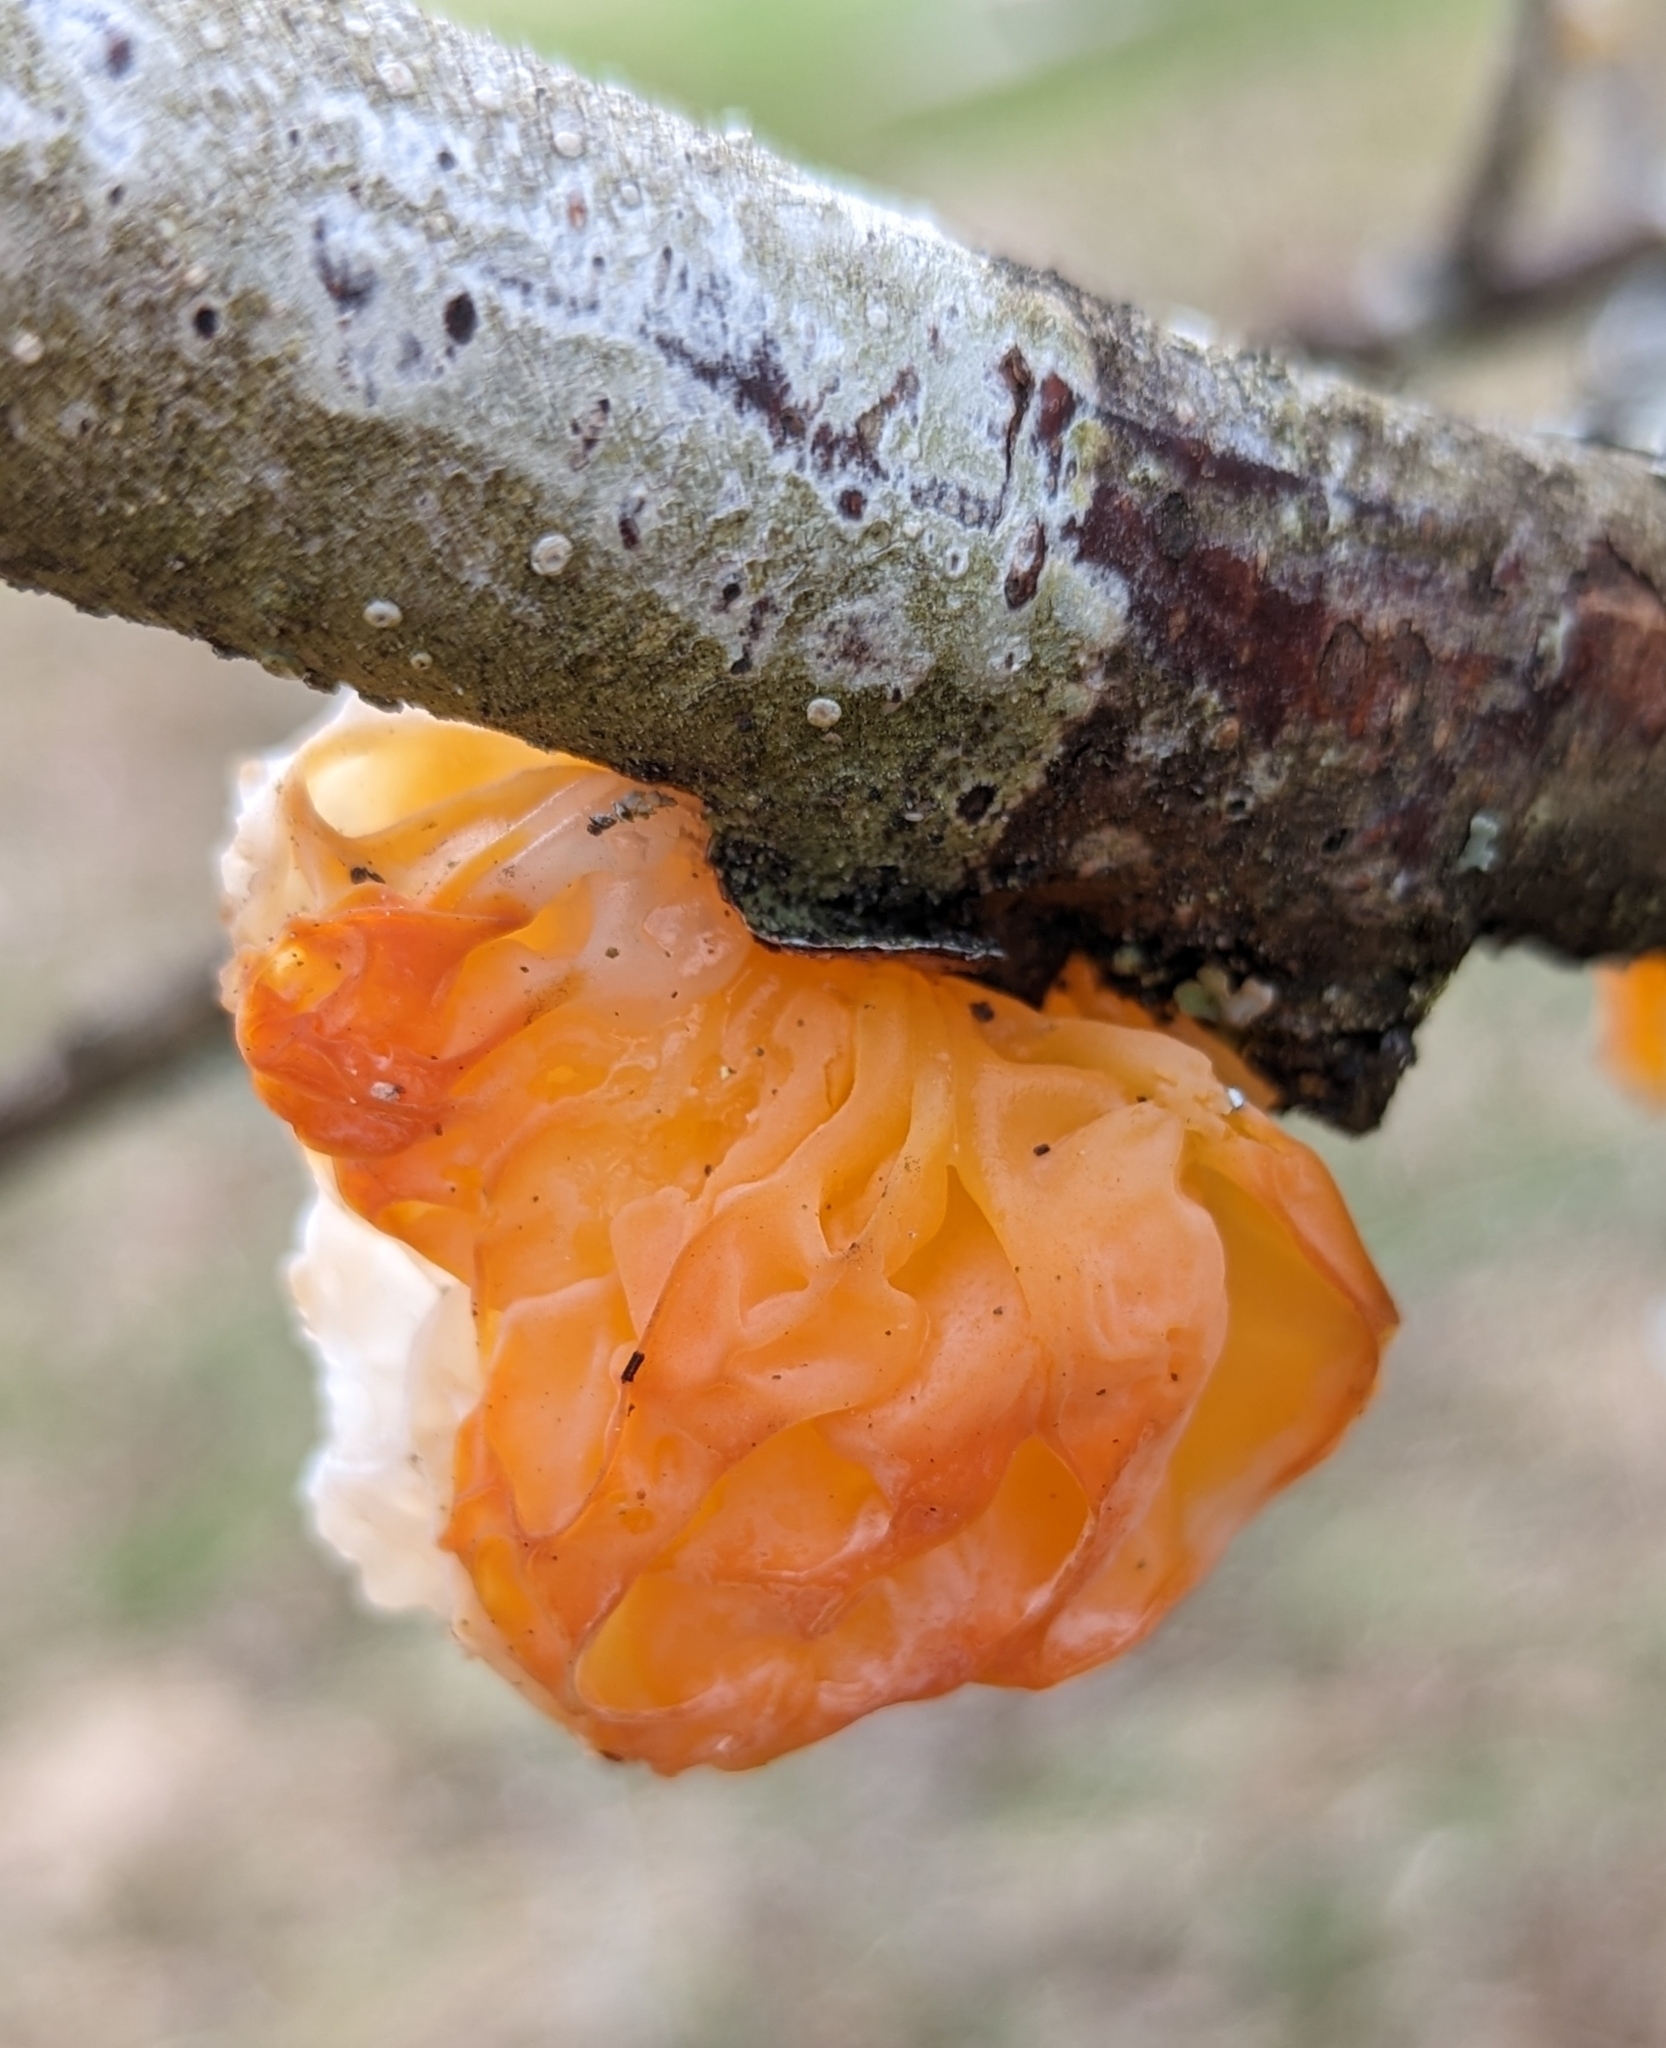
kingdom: Fungi
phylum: Basidiomycota
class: Tremellomycetes
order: Tremellales
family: Tremellaceae
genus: Tremella
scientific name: Tremella mesenterica
